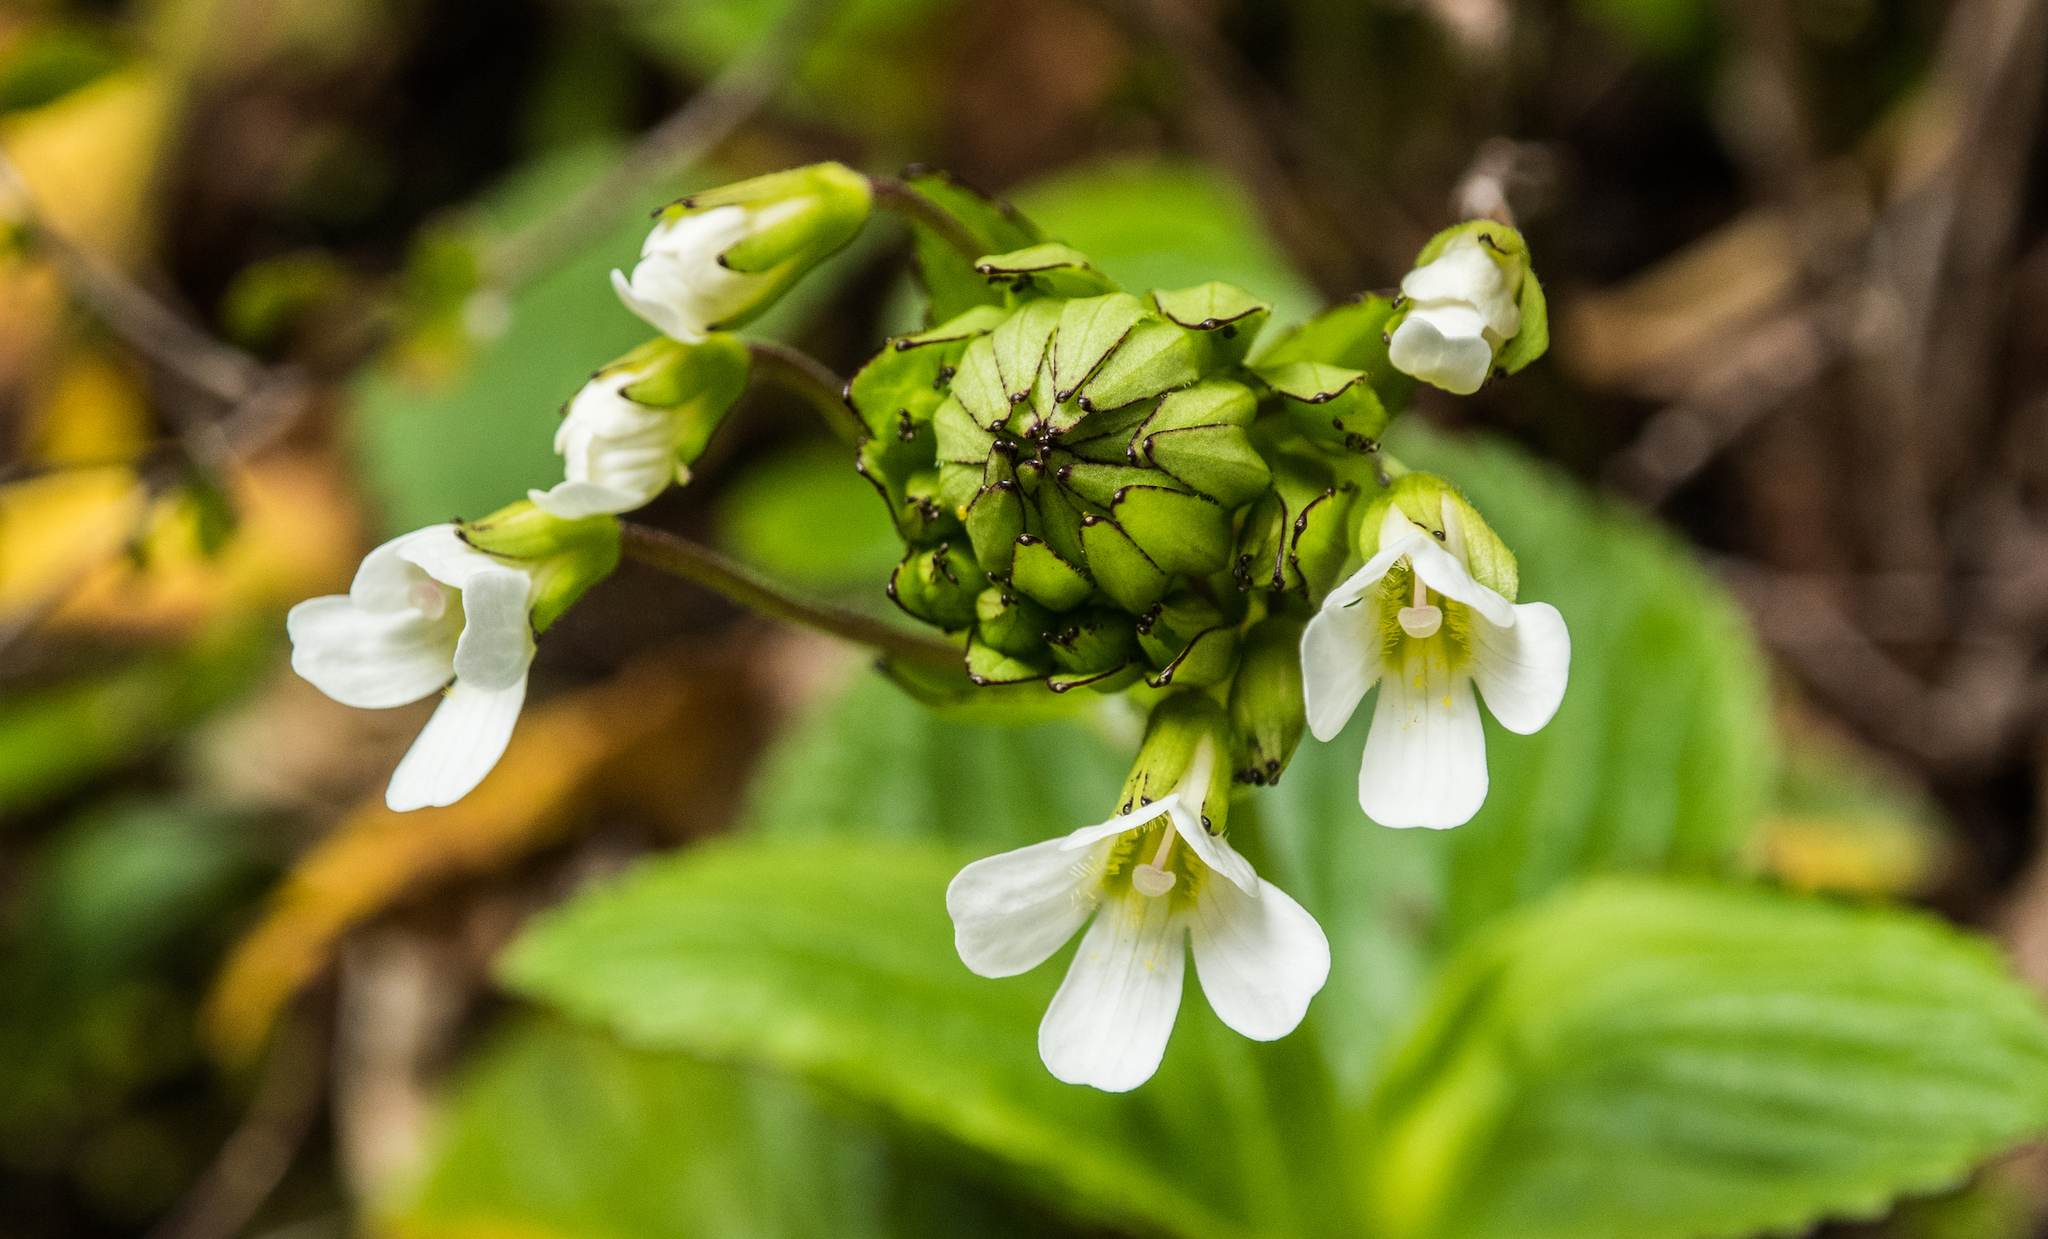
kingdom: Plantae
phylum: Tracheophyta
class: Magnoliopsida
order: Lamiales
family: Plantaginaceae
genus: Ourisia
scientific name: Ourisia macrophylla
